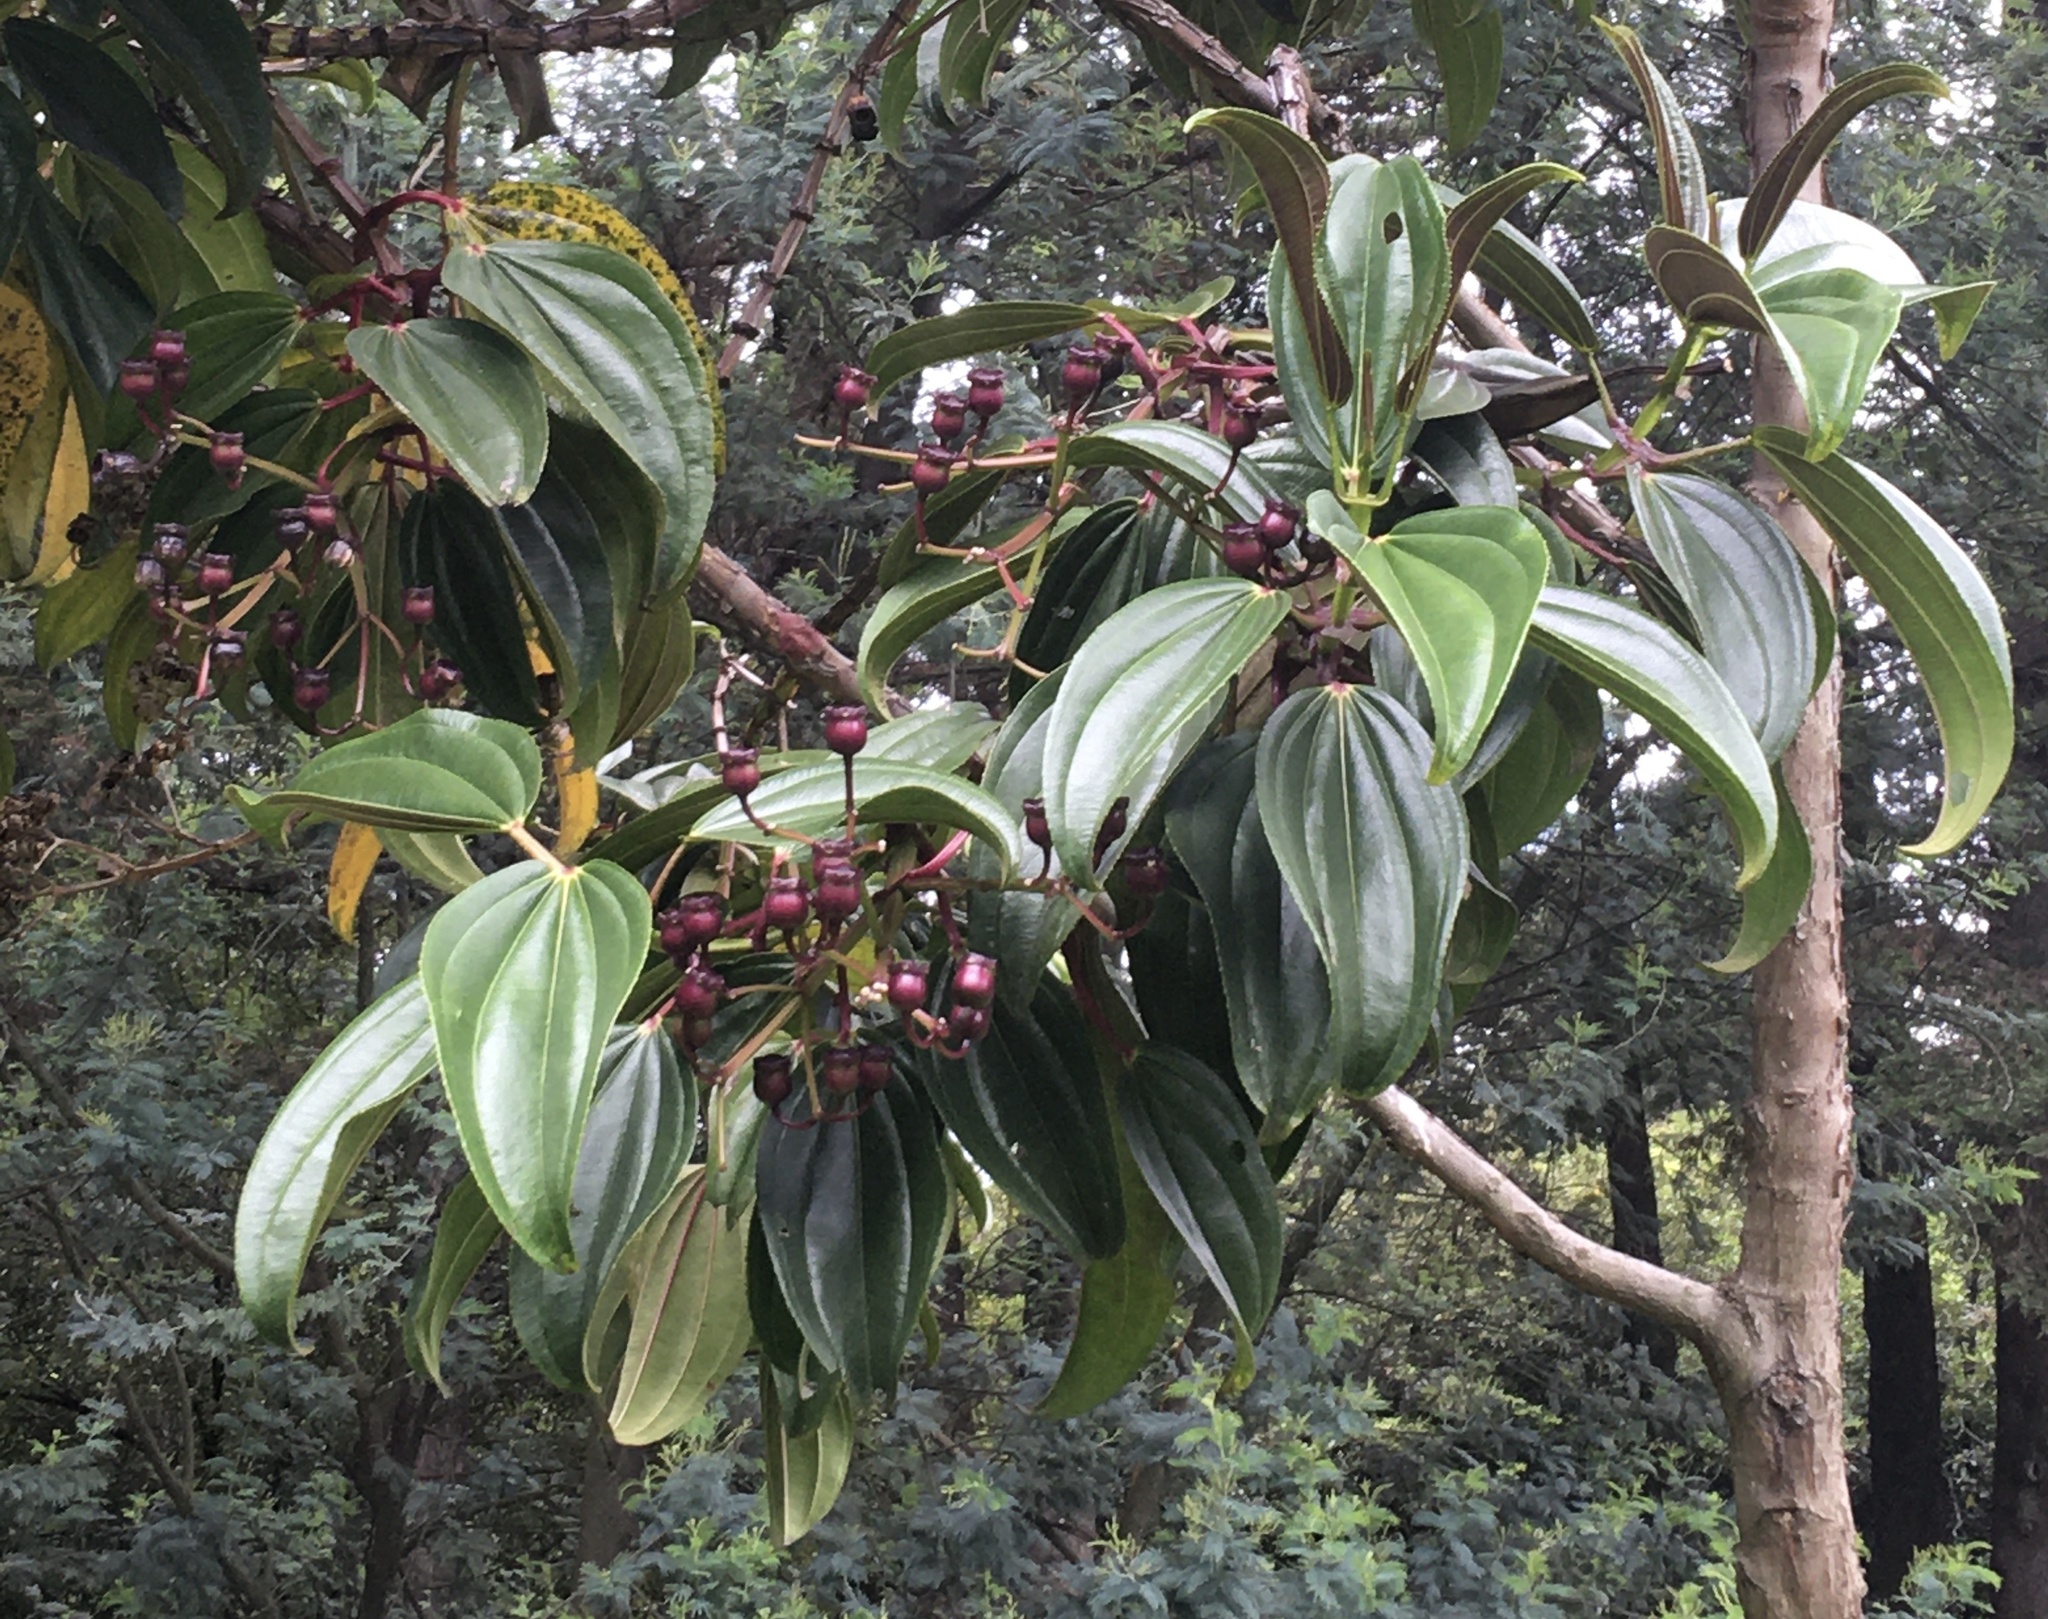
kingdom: Plantae
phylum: Tracheophyta
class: Magnoliopsida
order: Myrtales
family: Melastomataceae
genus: Meriania
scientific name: Meriania nobilis
